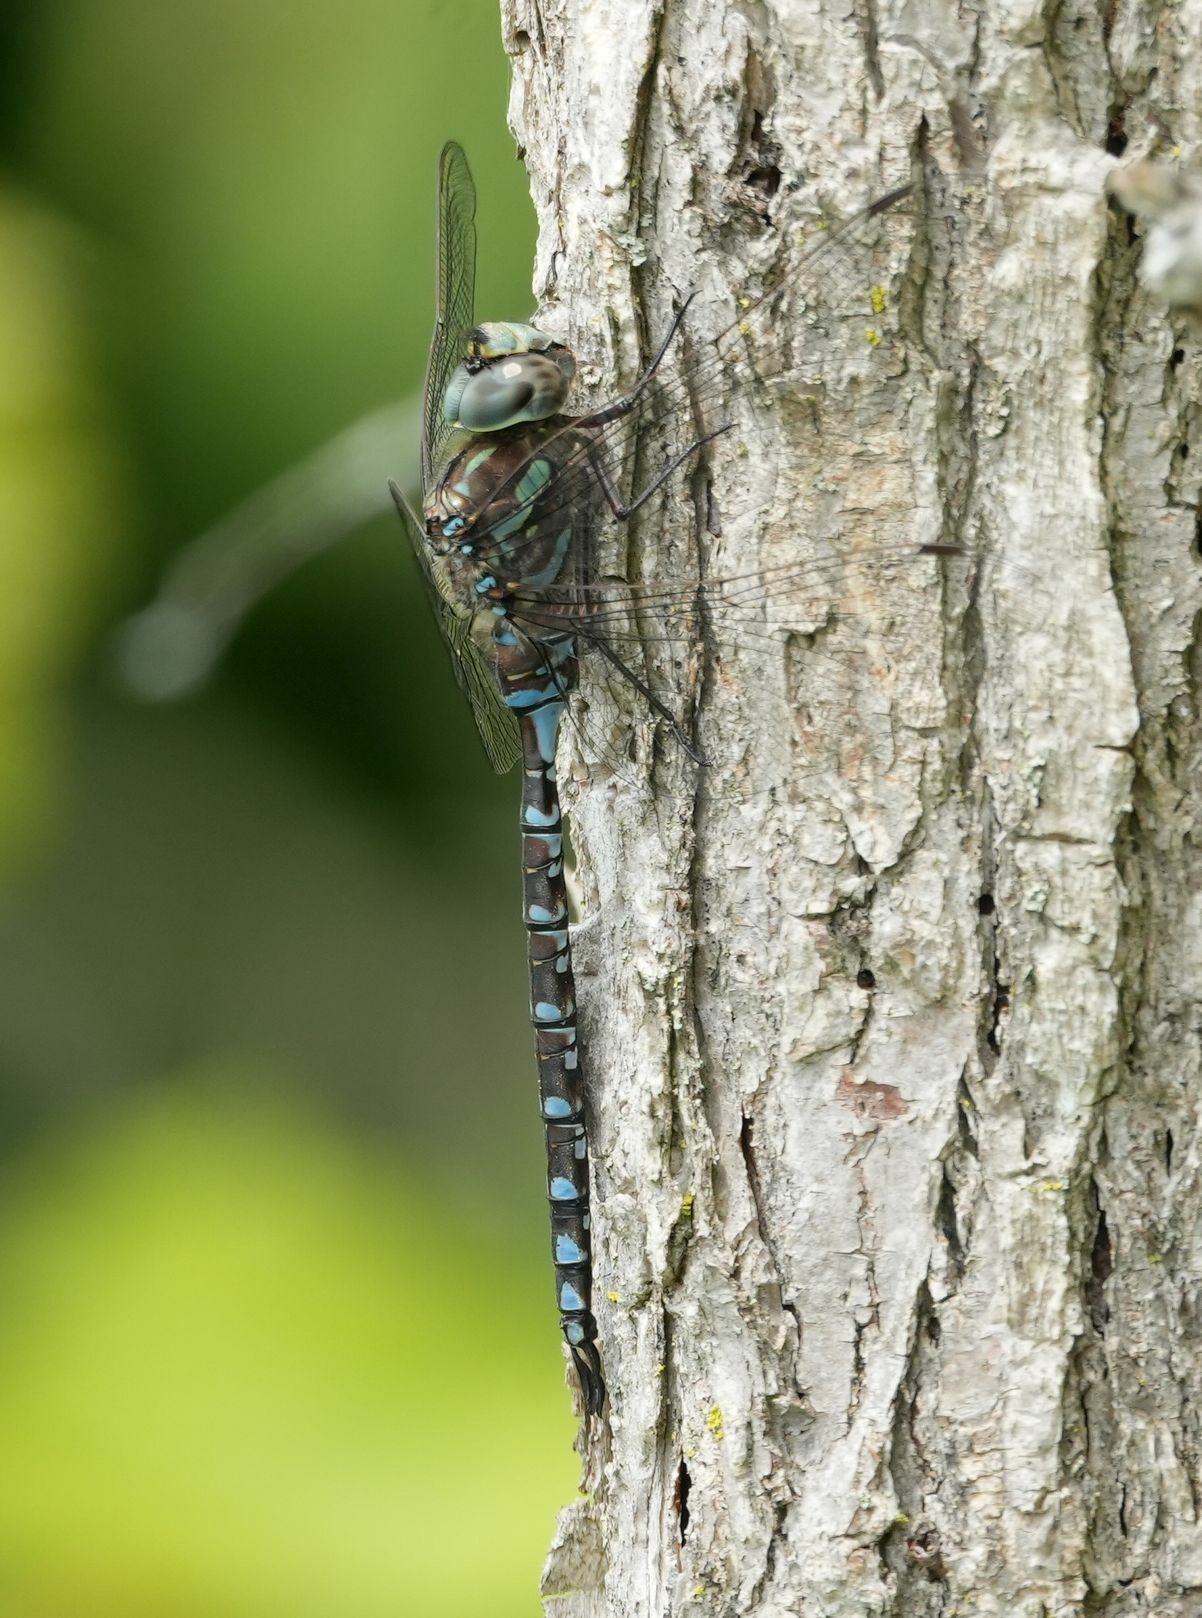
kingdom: Animalia
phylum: Arthropoda
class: Insecta
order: Odonata
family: Aeshnidae
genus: Aeshna
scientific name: Aeshna canadensis
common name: Canada darner
